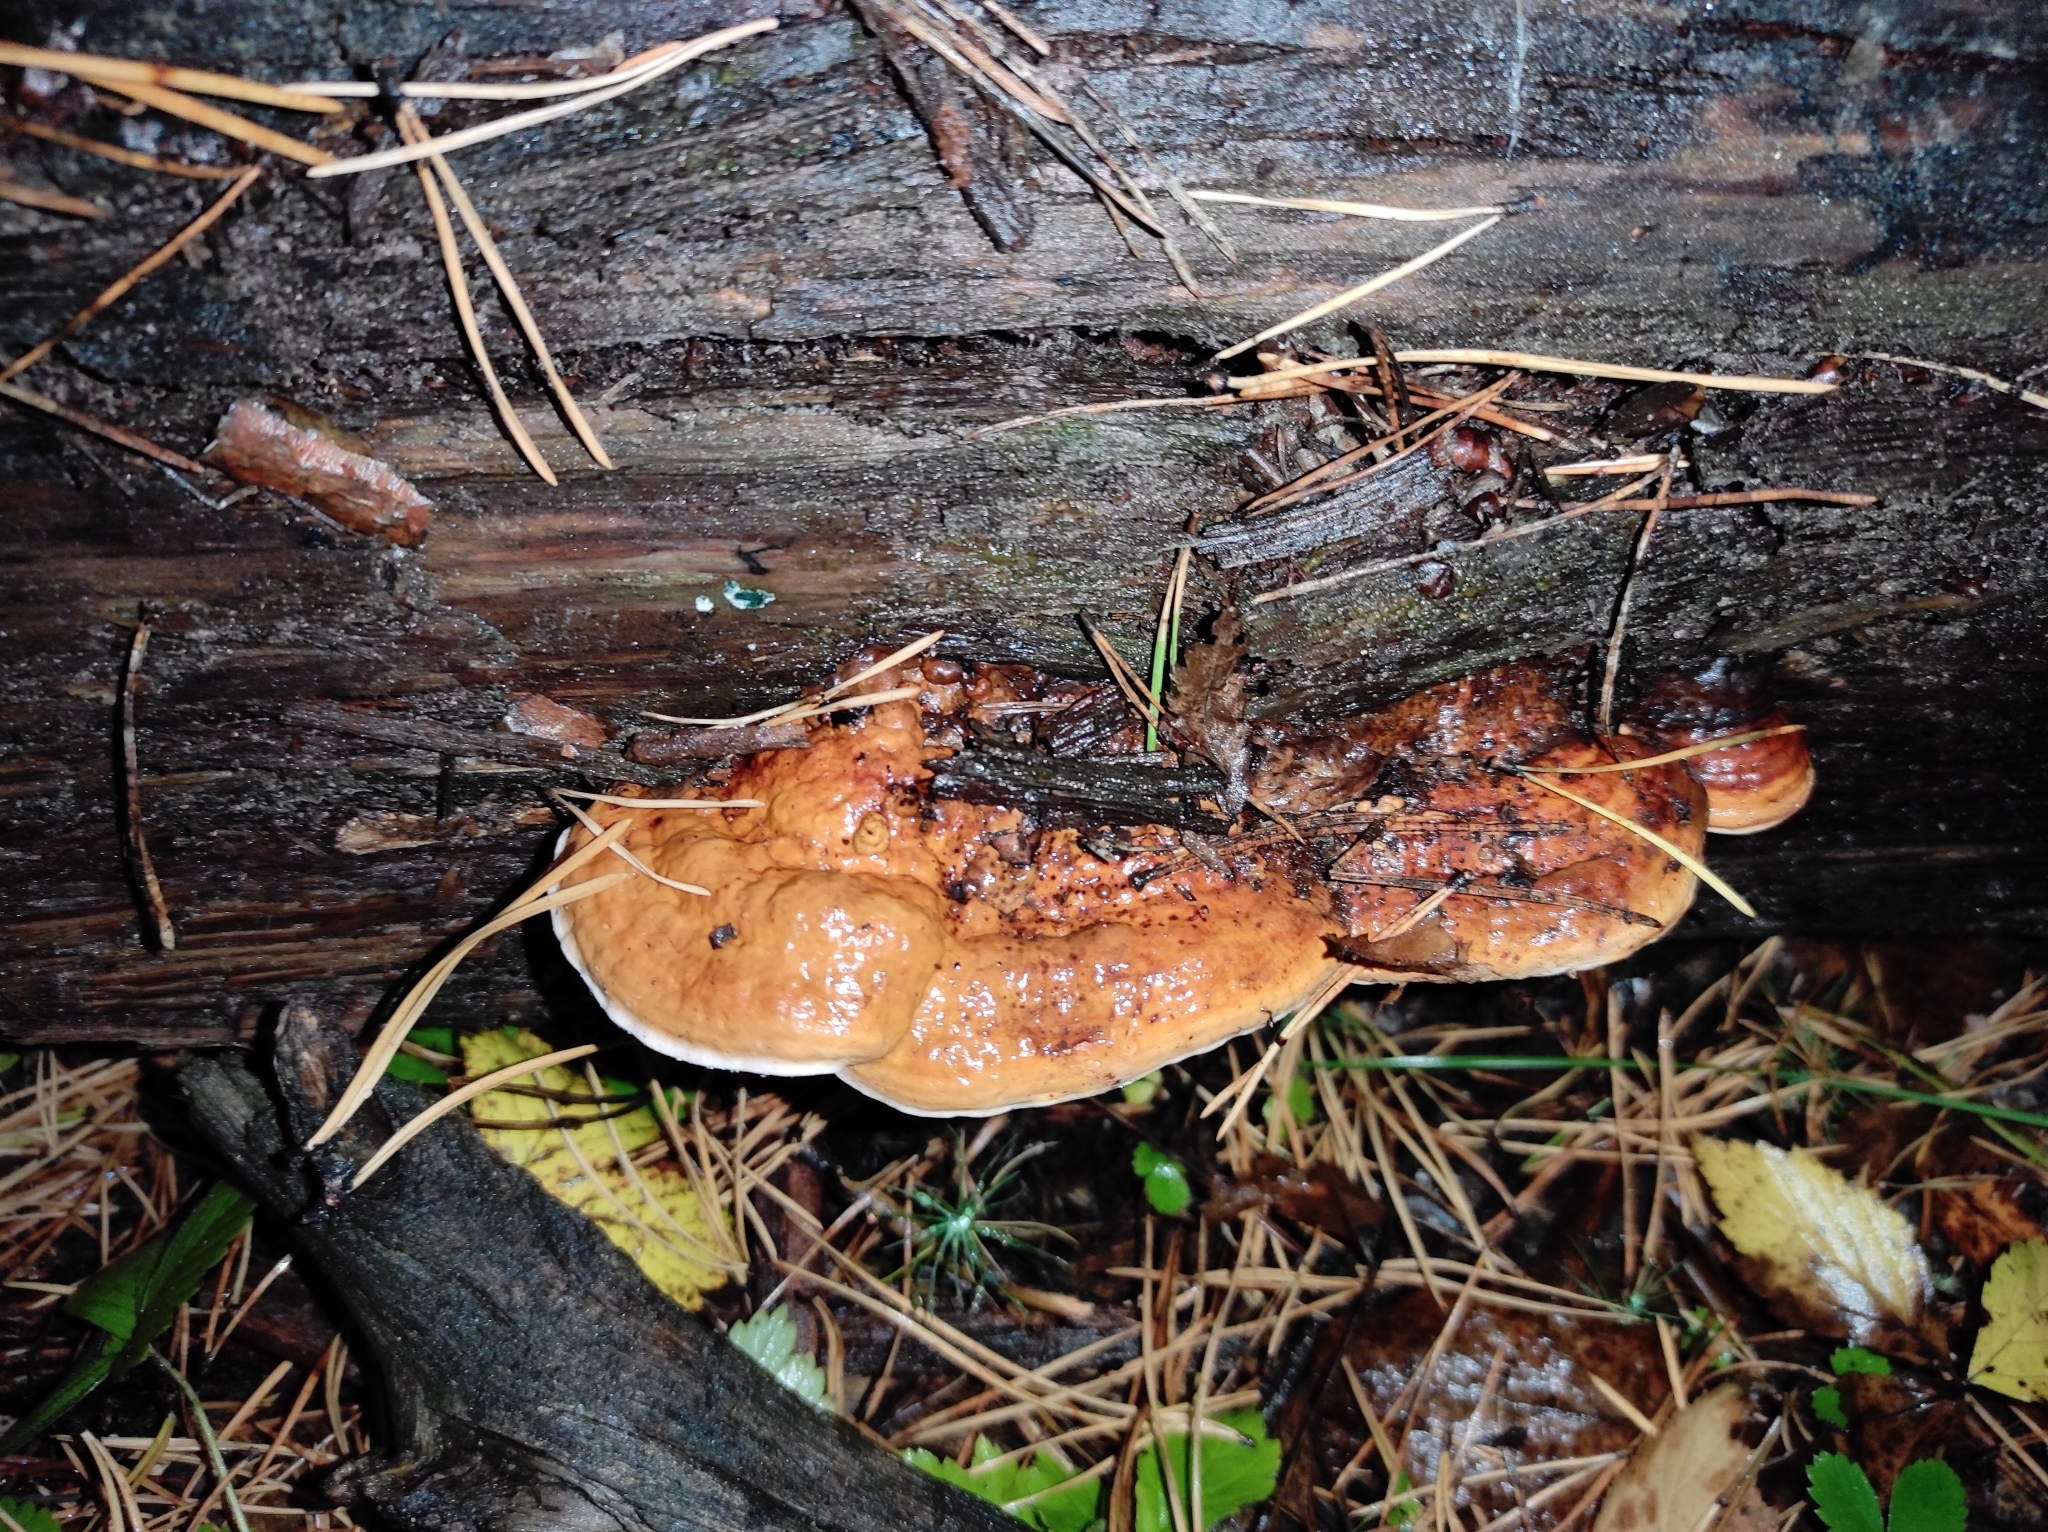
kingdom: Fungi
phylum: Basidiomycota
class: Agaricomycetes
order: Polyporales
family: Fomitopsidaceae
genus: Fomitopsis
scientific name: Fomitopsis pinicola
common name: Red-belted bracket
